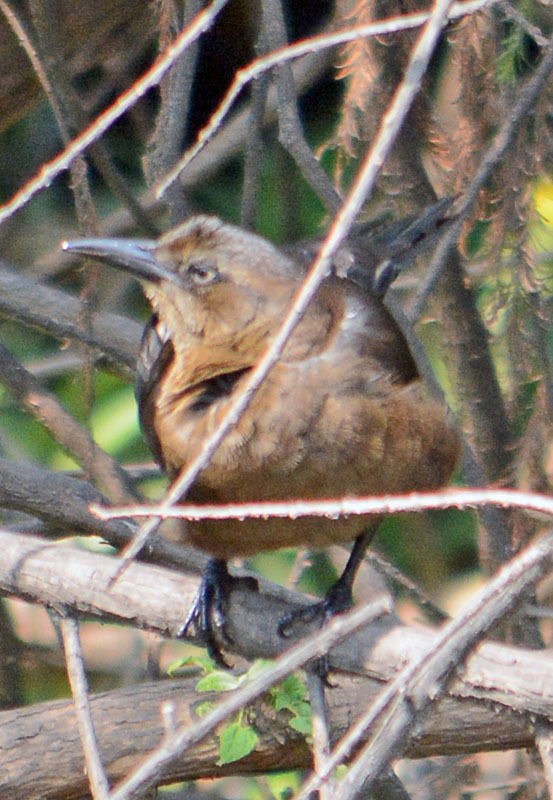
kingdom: Animalia
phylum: Chordata
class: Aves
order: Passeriformes
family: Icteridae
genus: Quiscalus
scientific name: Quiscalus mexicanus
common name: Great-tailed grackle
